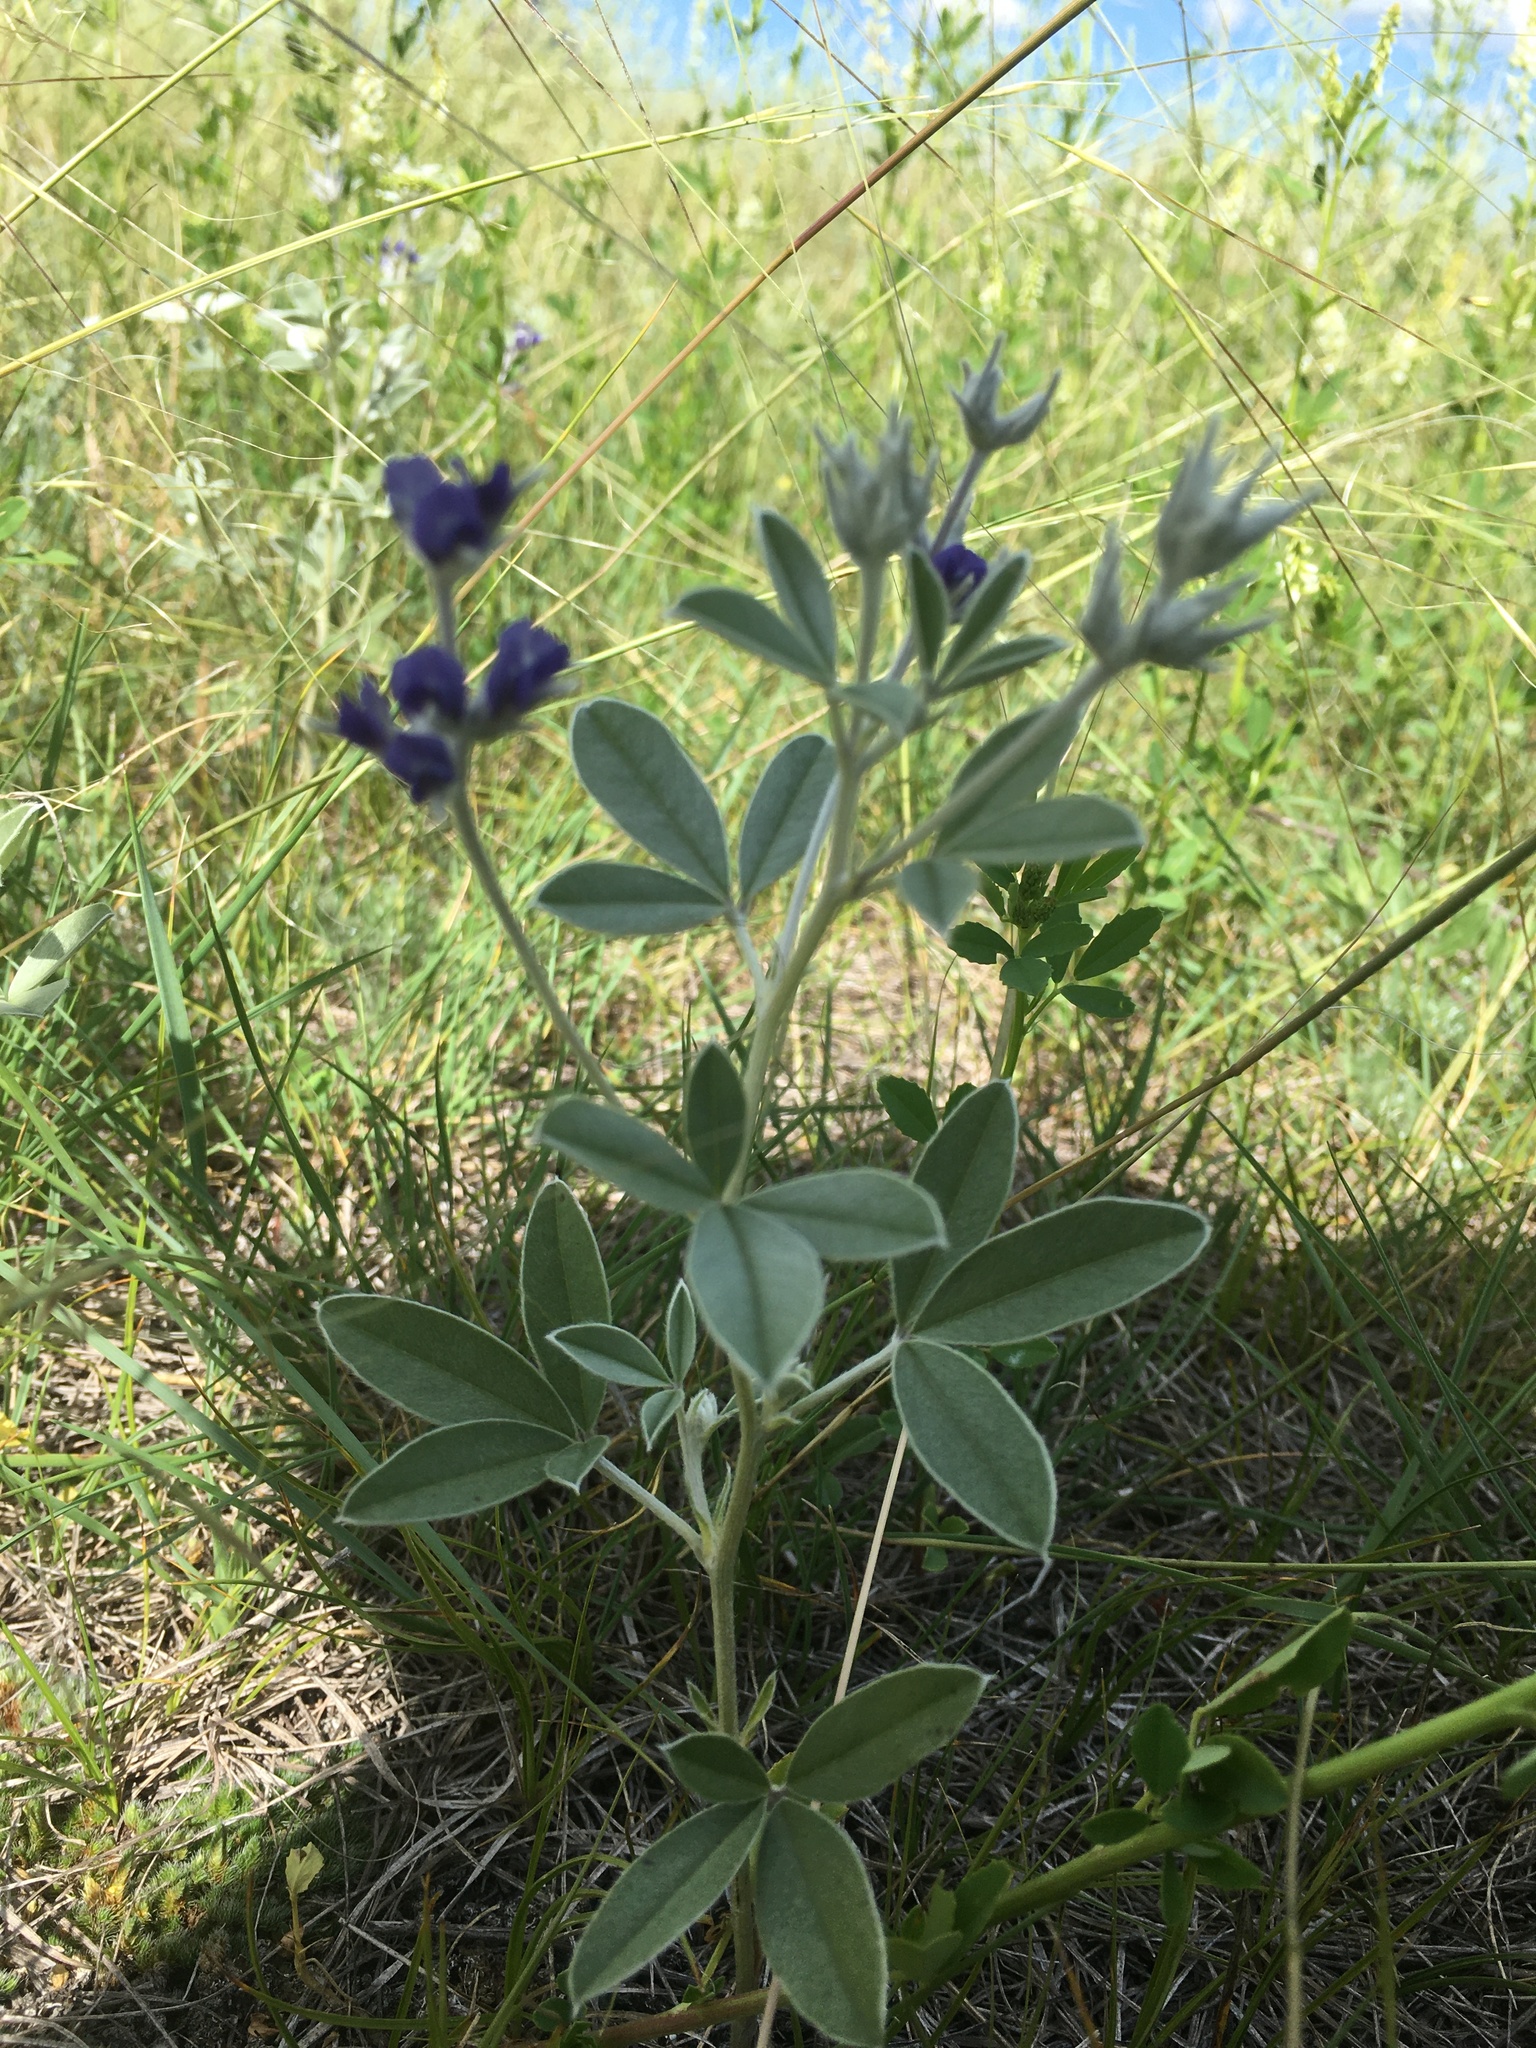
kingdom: Plantae
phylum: Tracheophyta
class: Magnoliopsida
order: Fabales
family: Fabaceae
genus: Pediomelum
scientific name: Pediomelum argophyllum
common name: Silver-leaved indian breadroot
